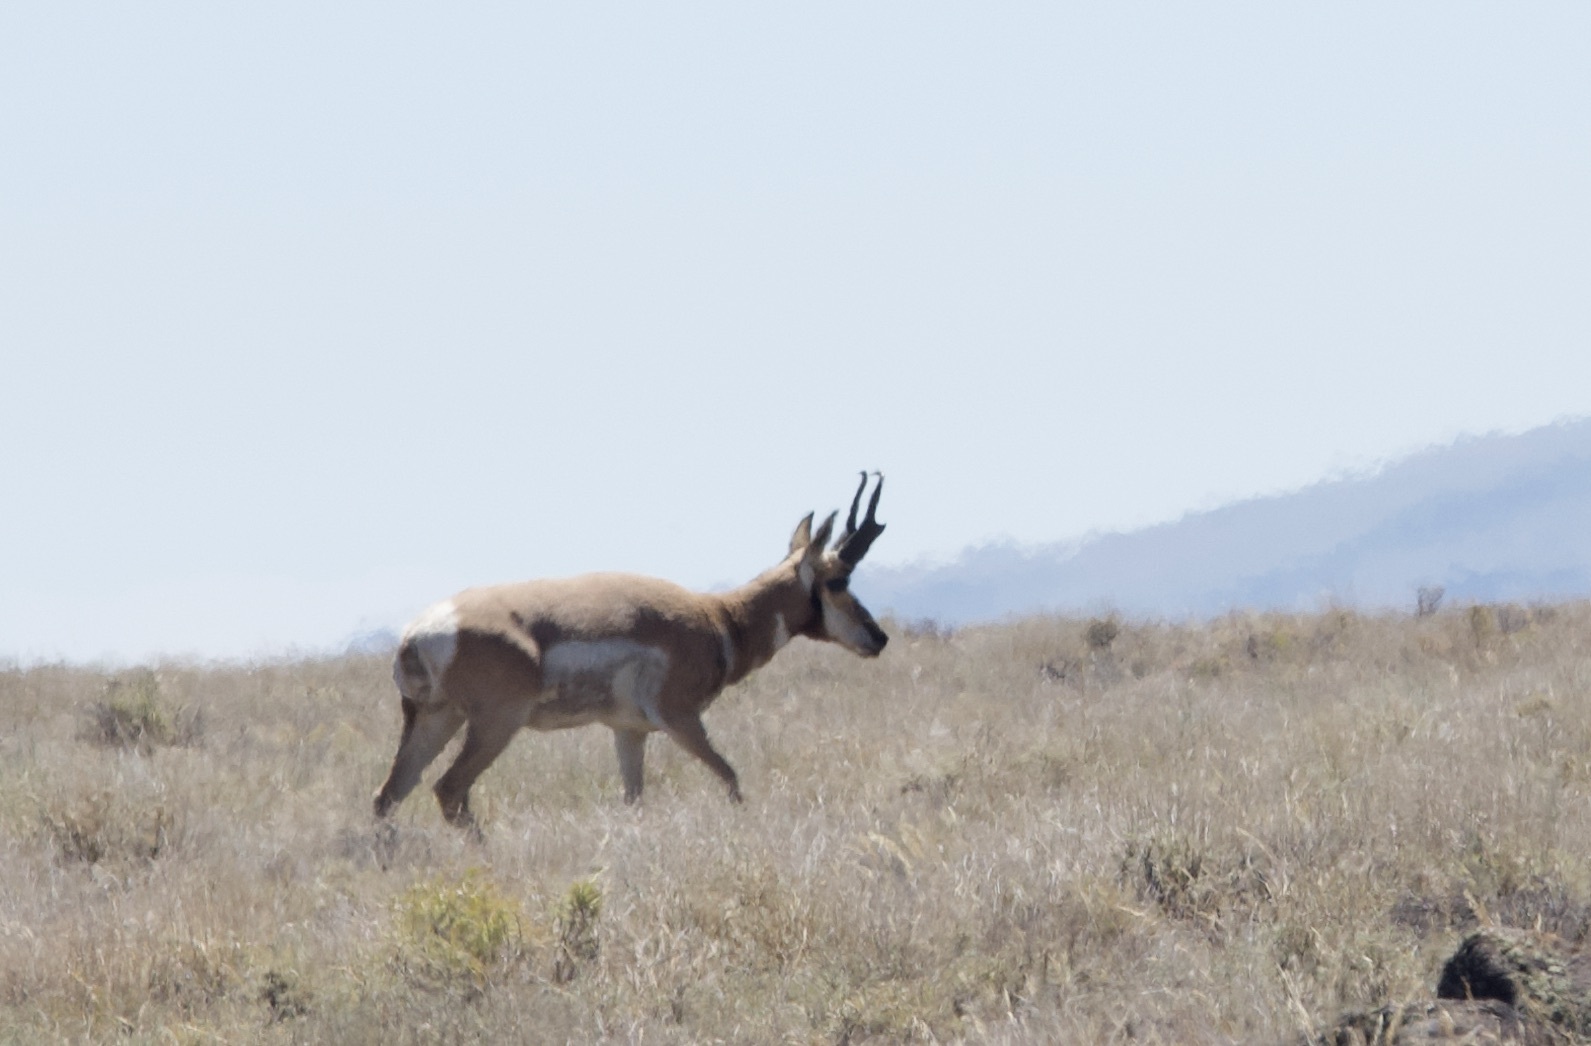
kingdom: Animalia
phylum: Chordata
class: Mammalia
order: Artiodactyla
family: Antilocapridae
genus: Antilocapra
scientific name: Antilocapra americana
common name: Pronghorn
